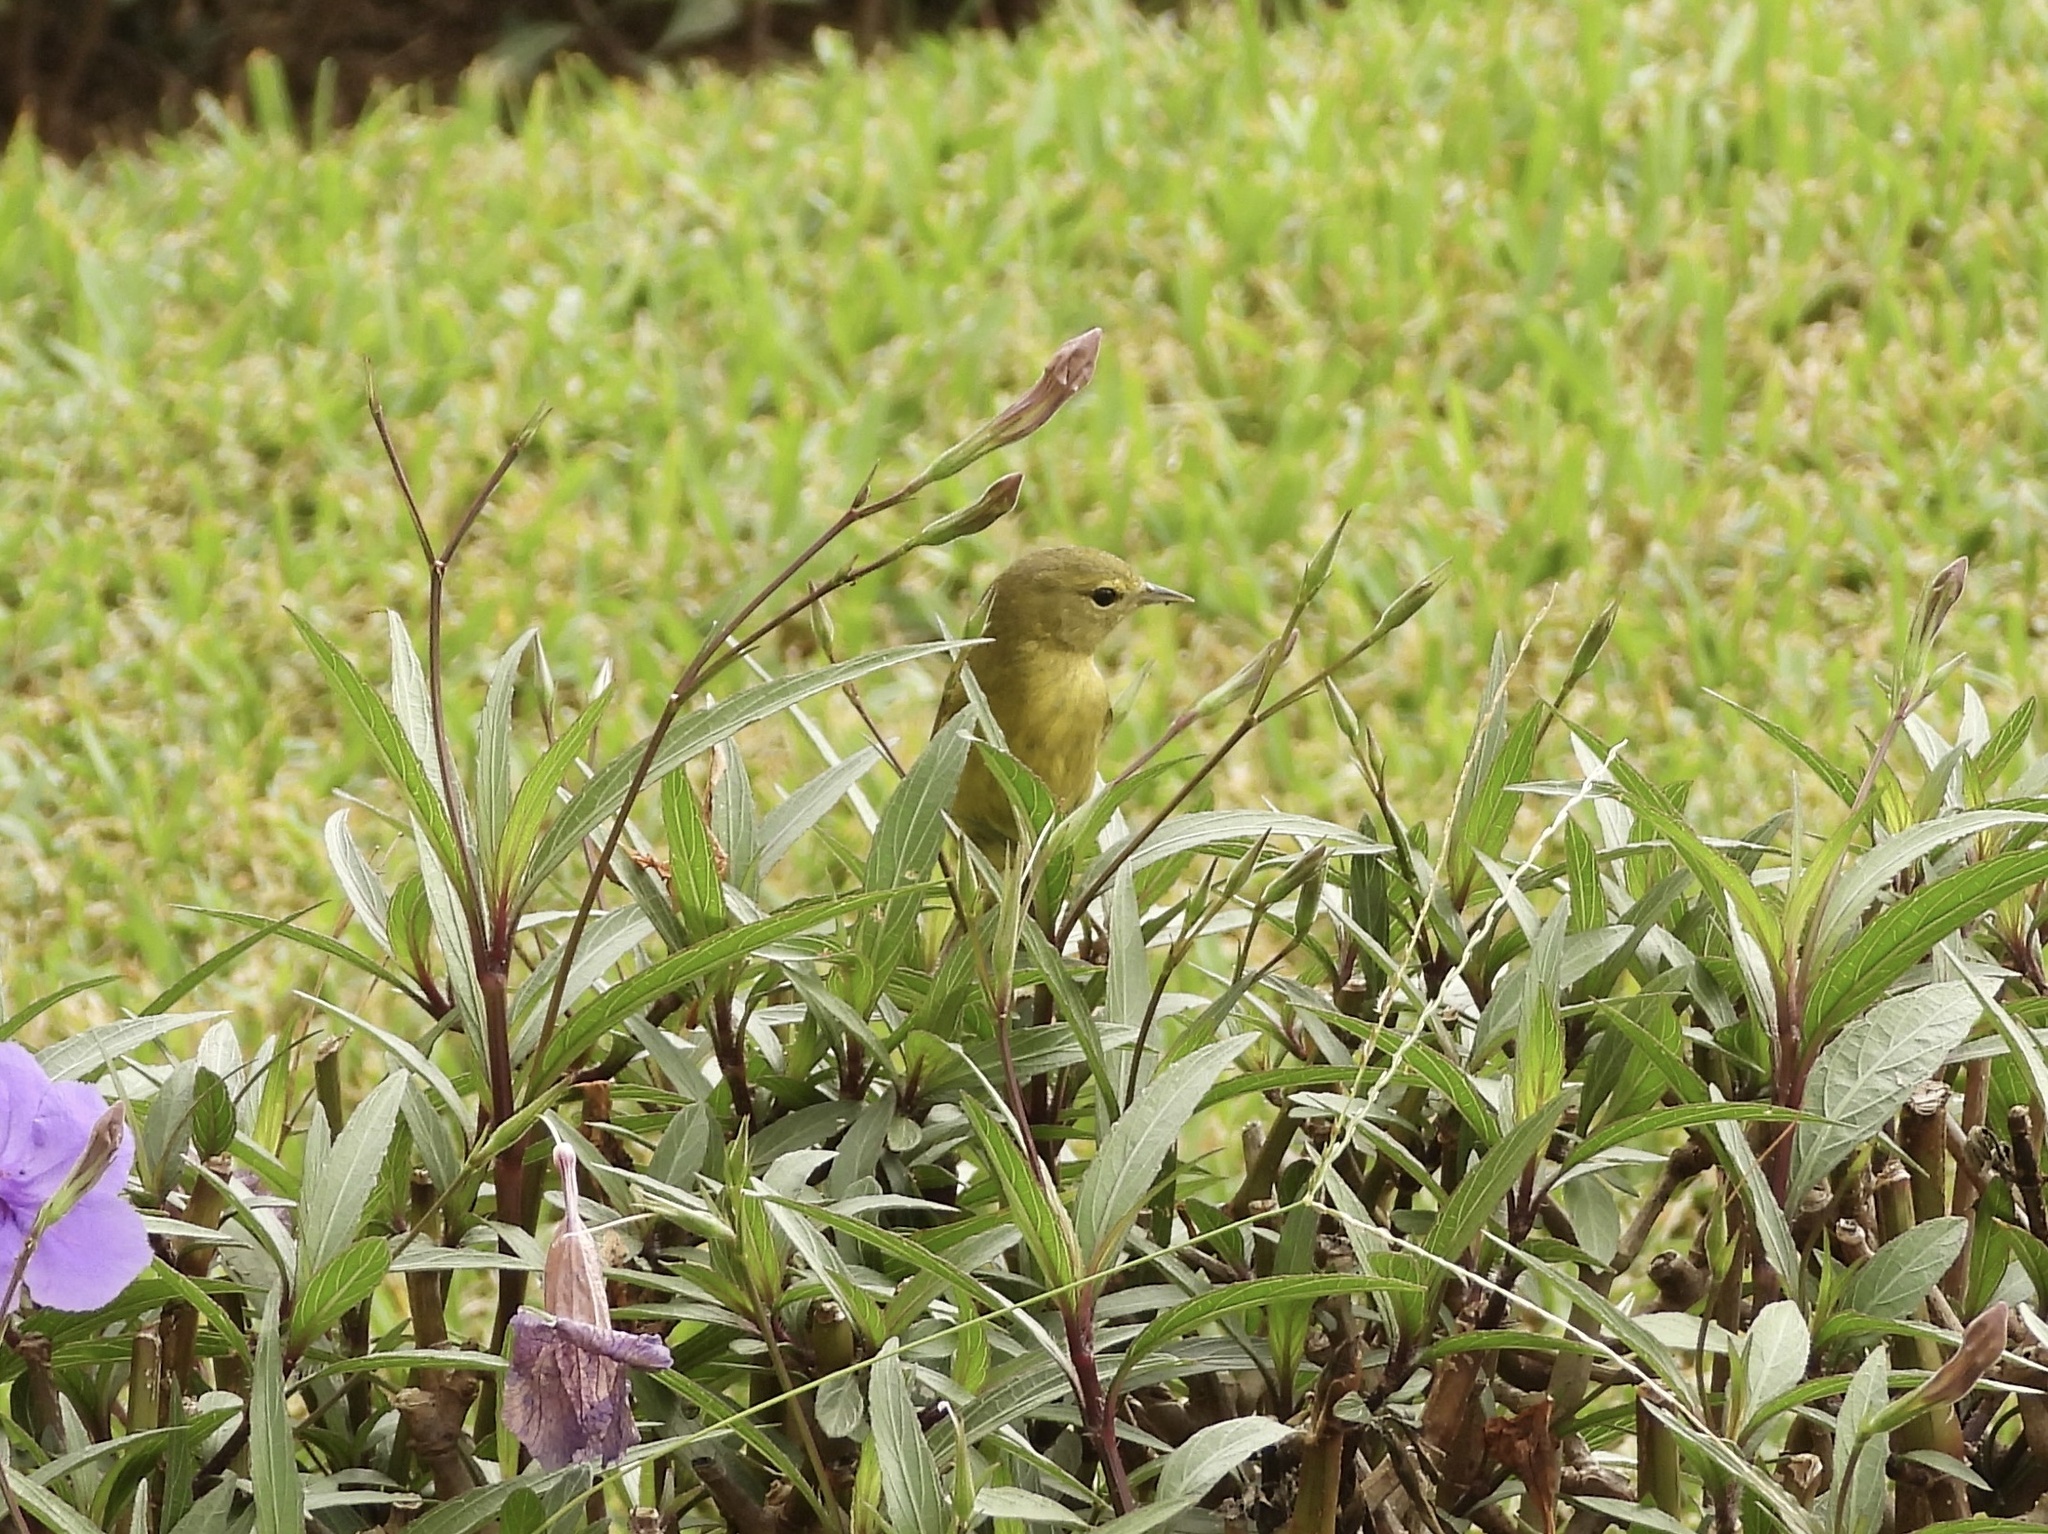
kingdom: Animalia
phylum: Chordata
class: Aves
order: Passeriformes
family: Parulidae
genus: Leiothlypis
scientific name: Leiothlypis celata
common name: Orange-crowned warbler
